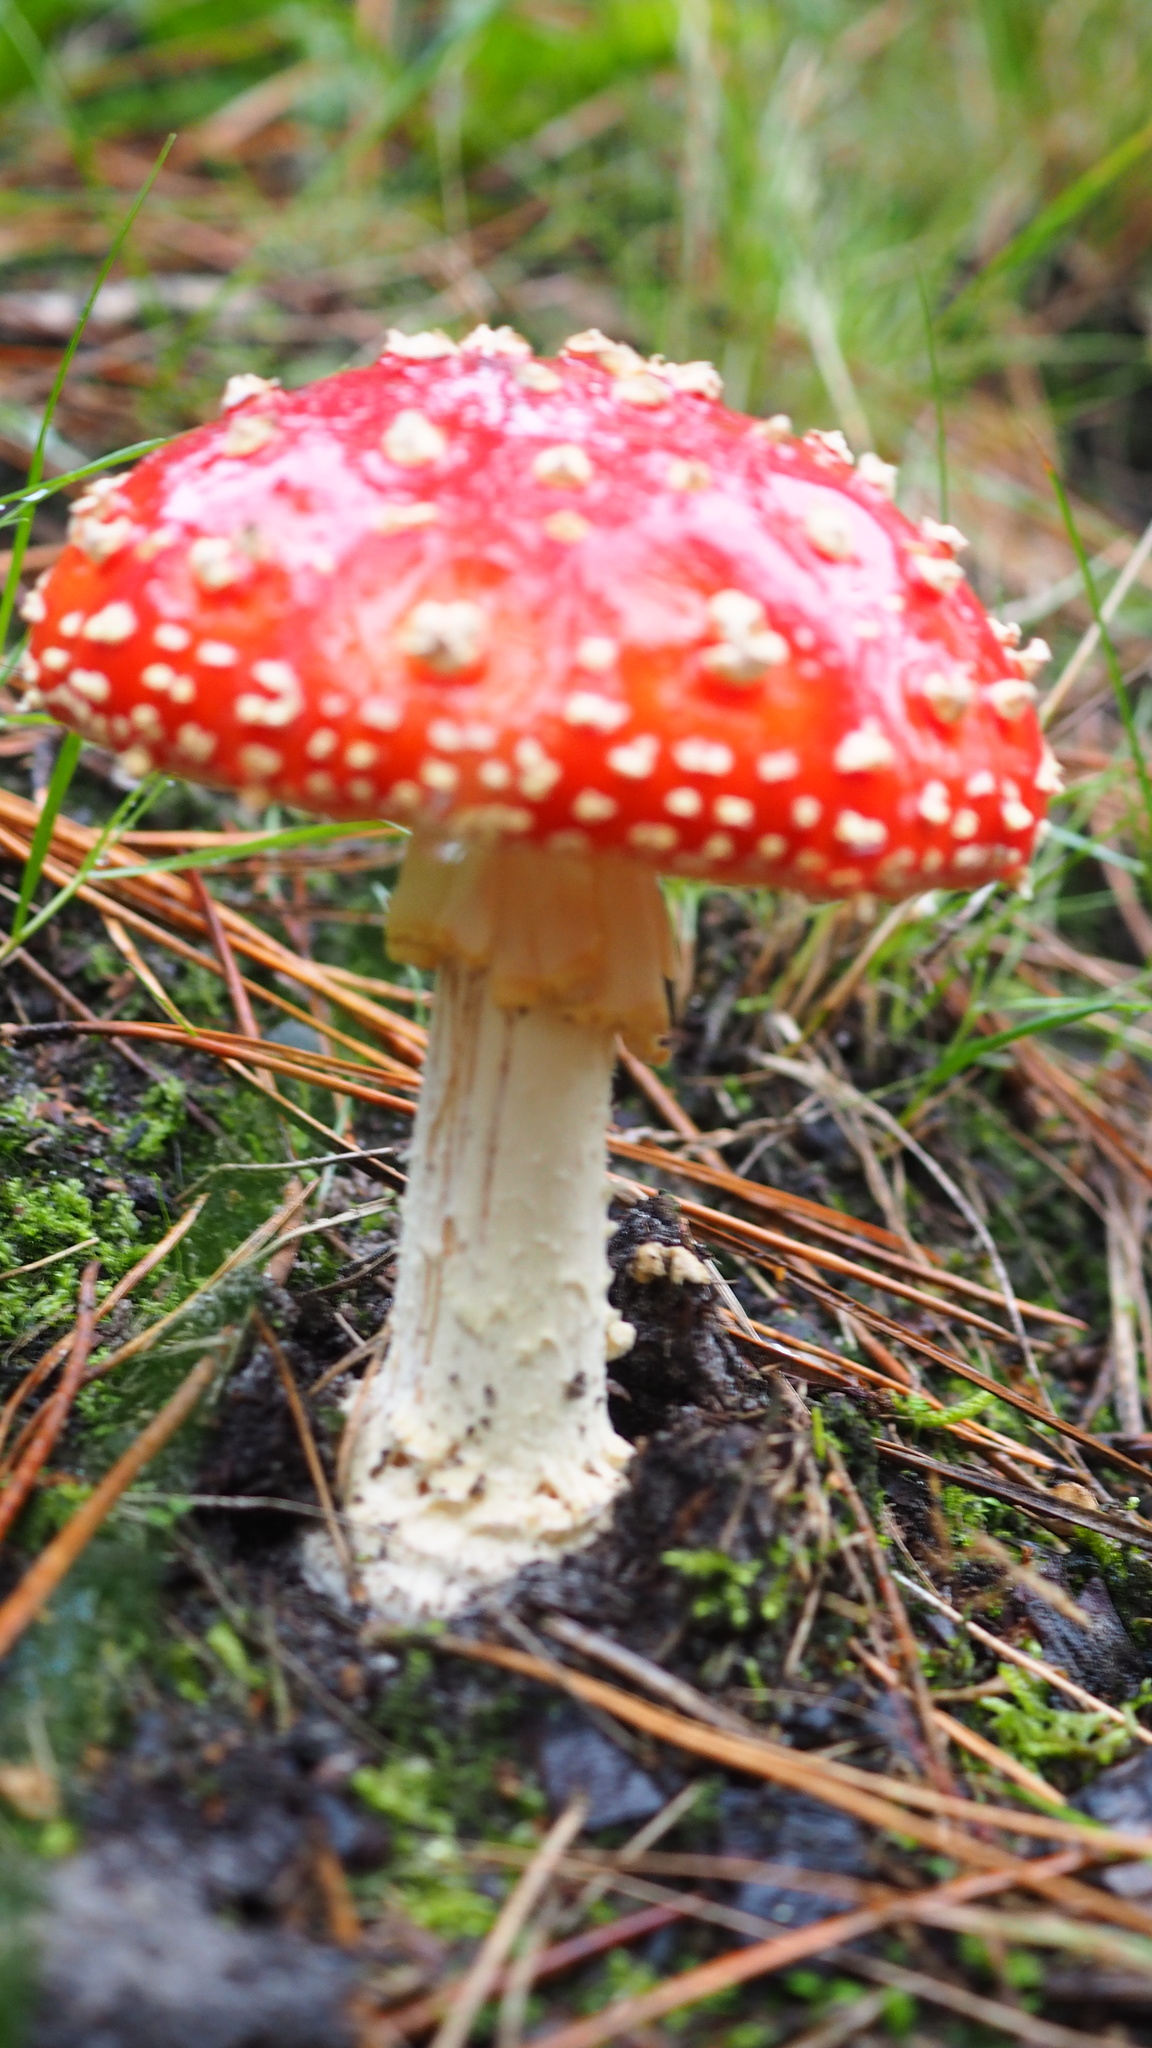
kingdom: Fungi
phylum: Basidiomycota
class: Agaricomycetes
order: Agaricales
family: Amanitaceae
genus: Amanita
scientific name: Amanita muscaria
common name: Fly agaric
